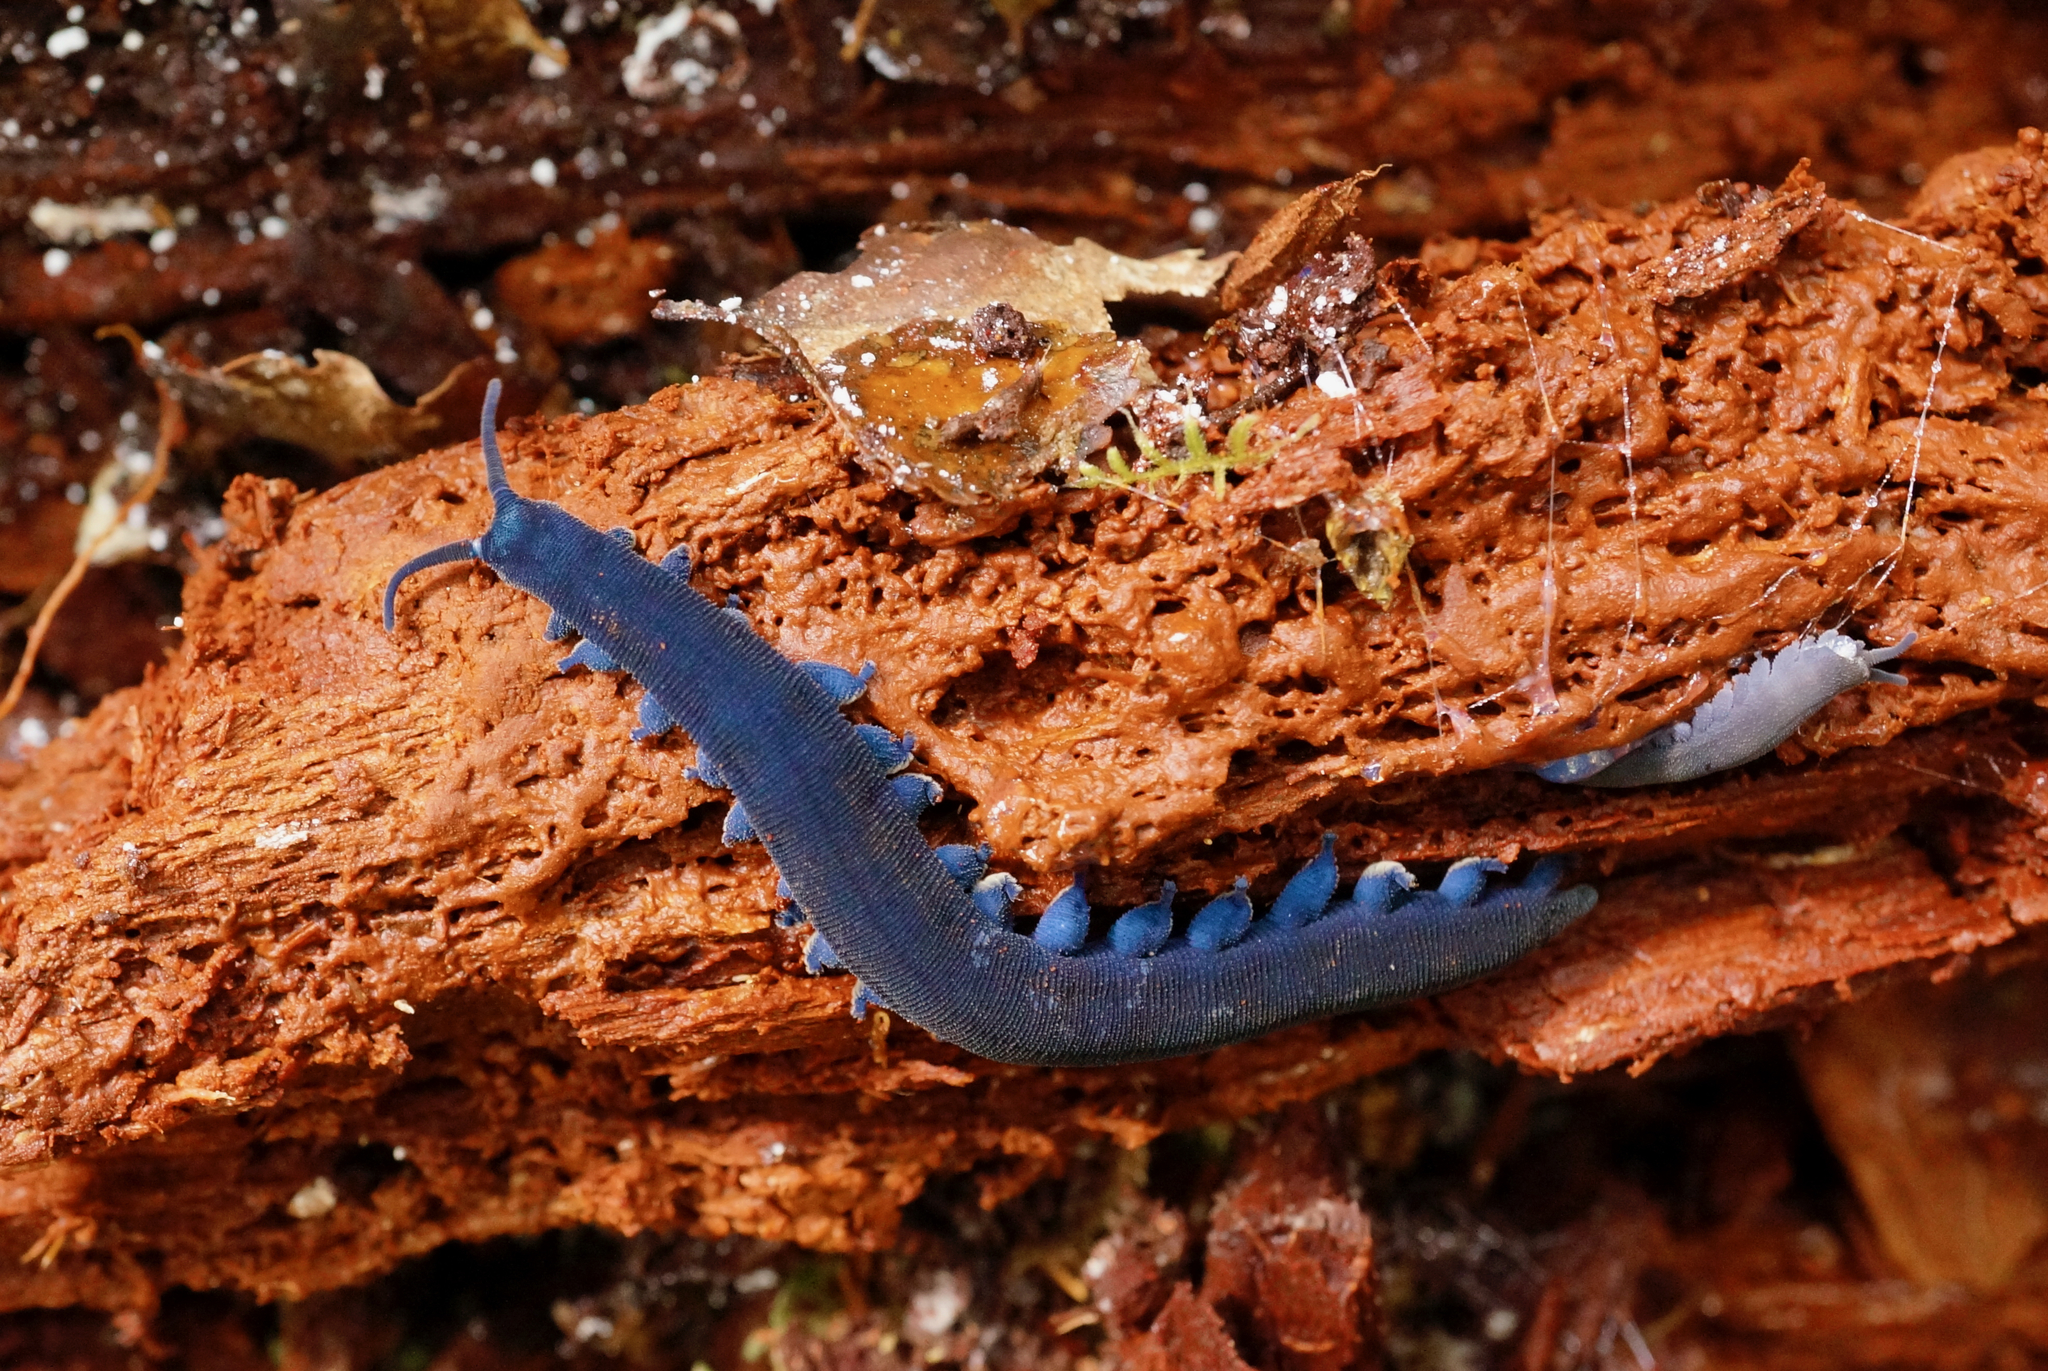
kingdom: Animalia
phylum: Onychophora
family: Peripatopsidae
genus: Peripatoides
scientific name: Peripatoides indigo
